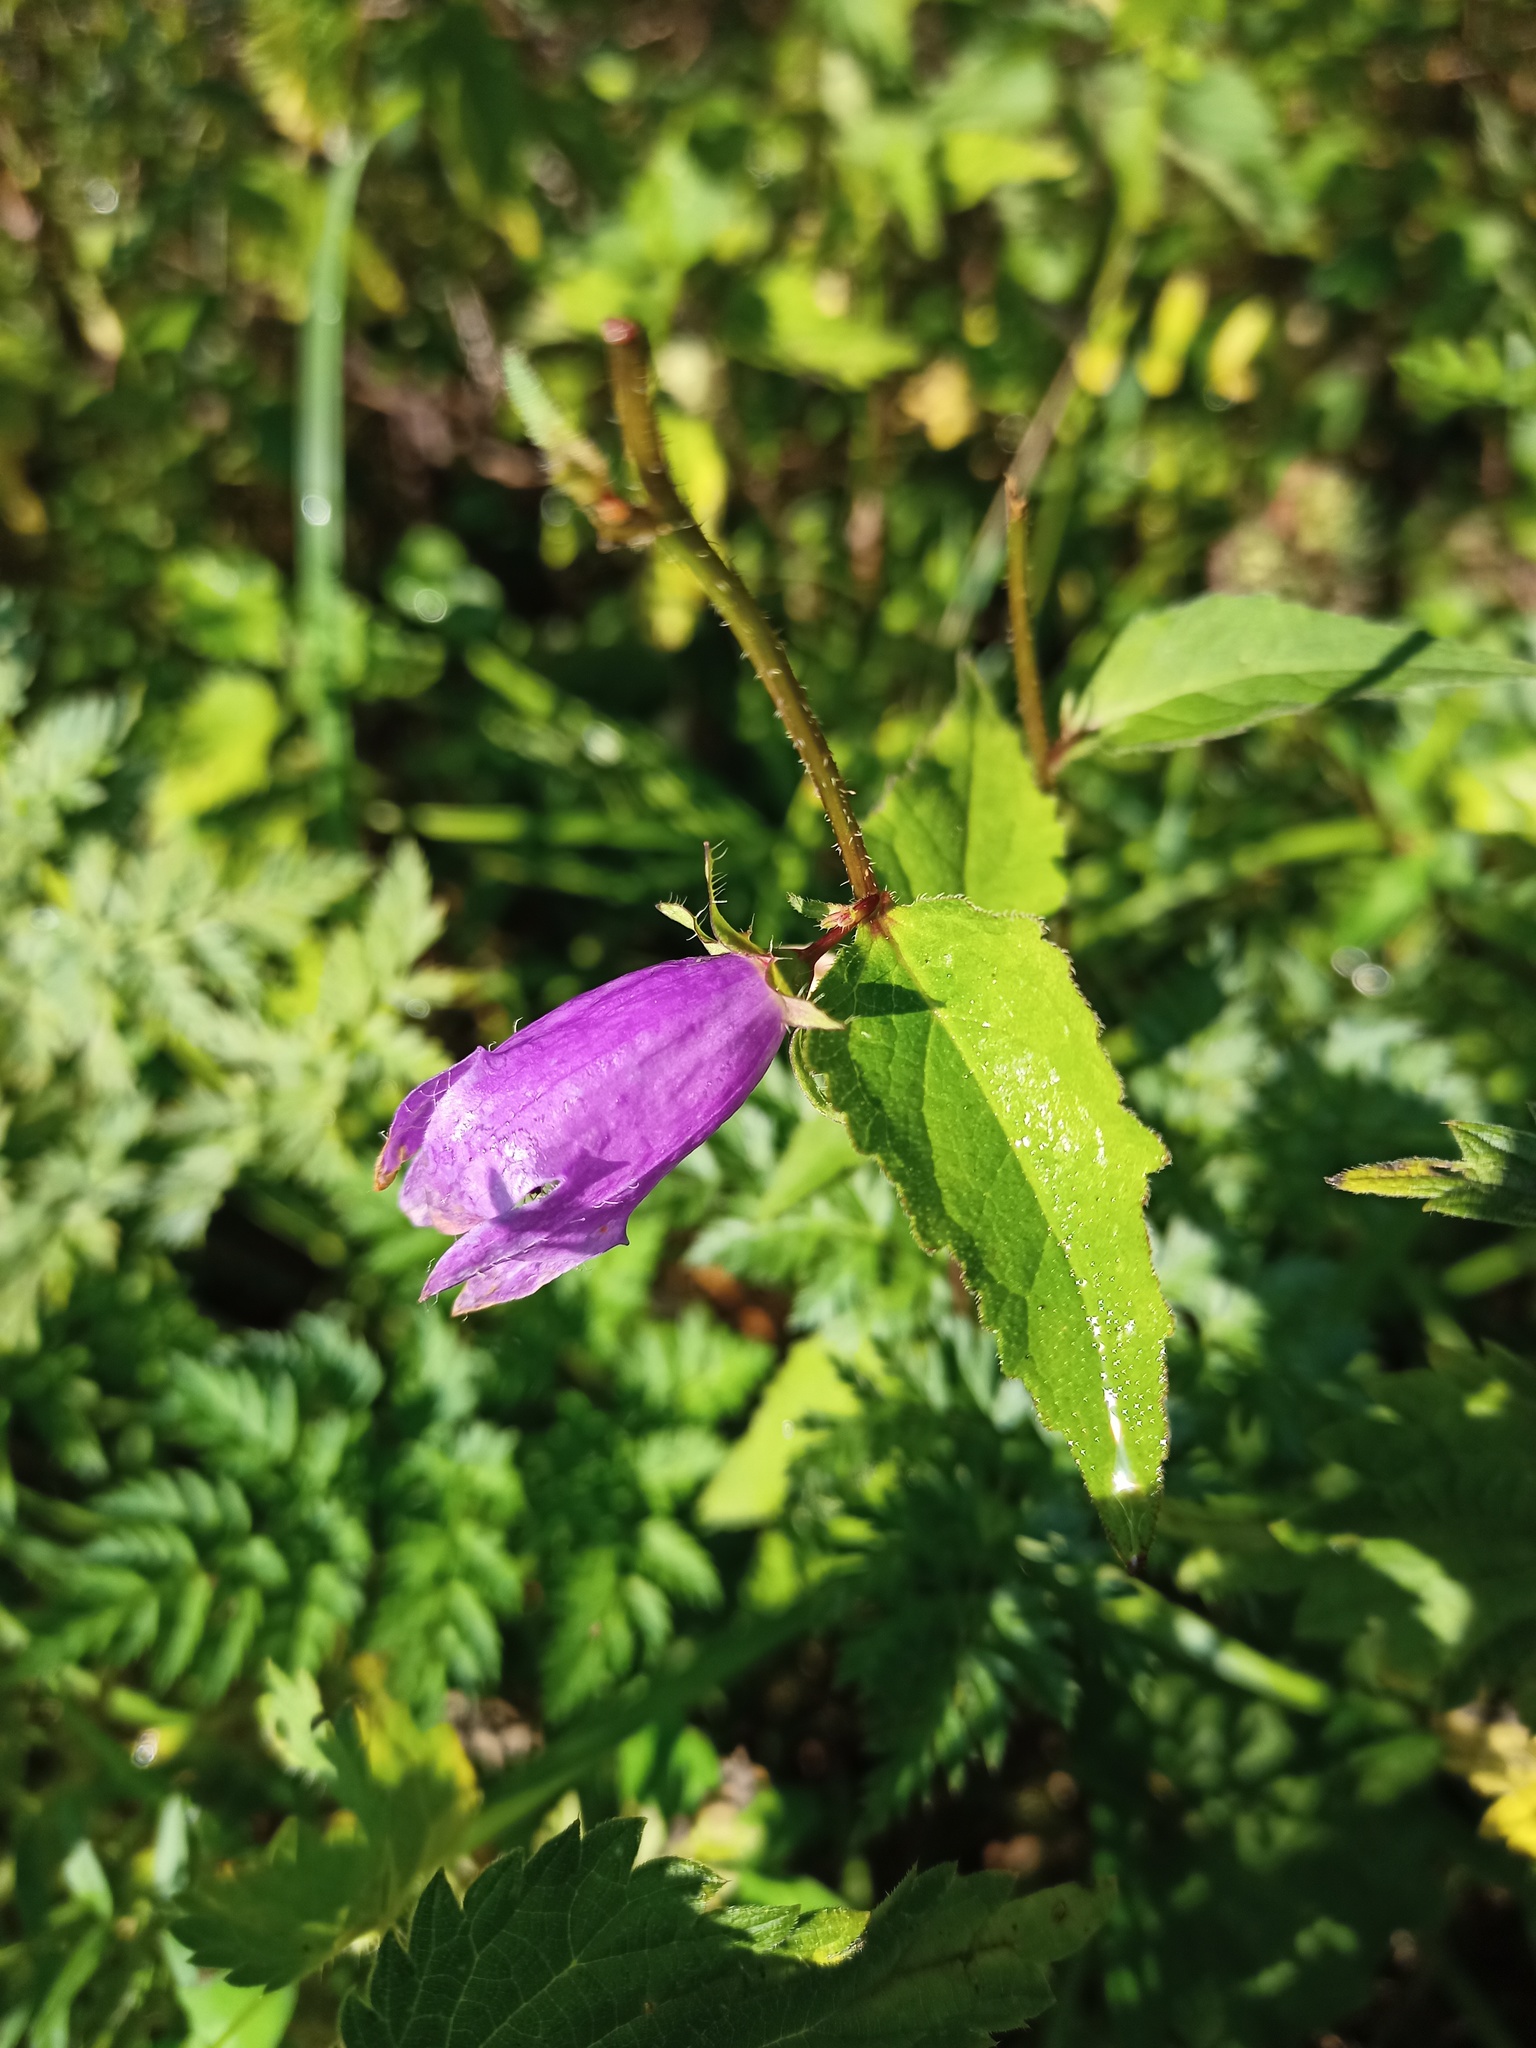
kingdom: Plantae
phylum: Tracheophyta
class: Magnoliopsida
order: Asterales
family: Campanulaceae
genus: Campanula
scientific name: Campanula trachelium
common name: Nettle-leaved bellflower
